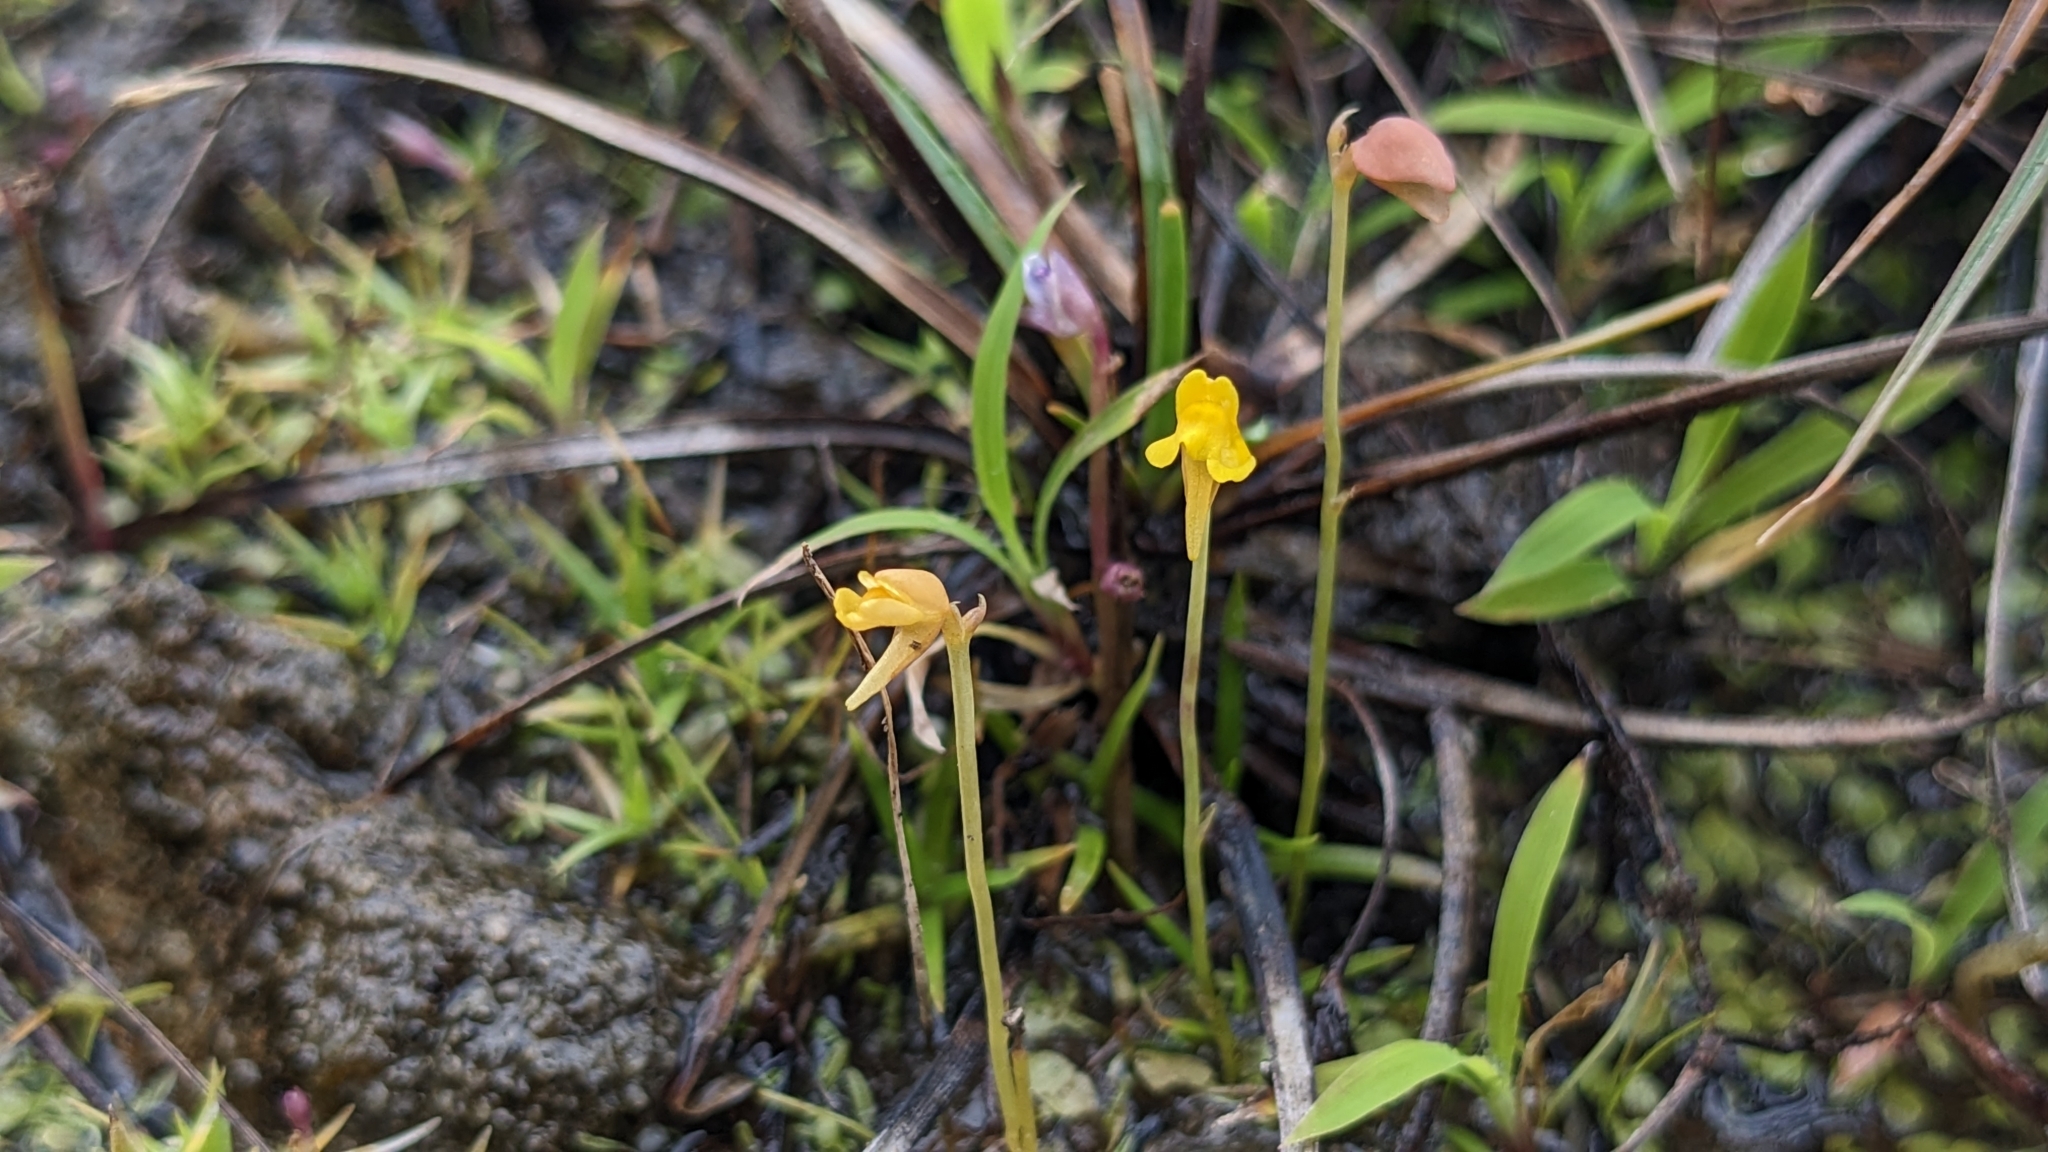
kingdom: Plantae
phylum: Tracheophyta
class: Magnoliopsida
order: Lamiales
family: Lentibulariaceae
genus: Utricularia
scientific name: Utricularia bifida
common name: Bifid bladderwort
